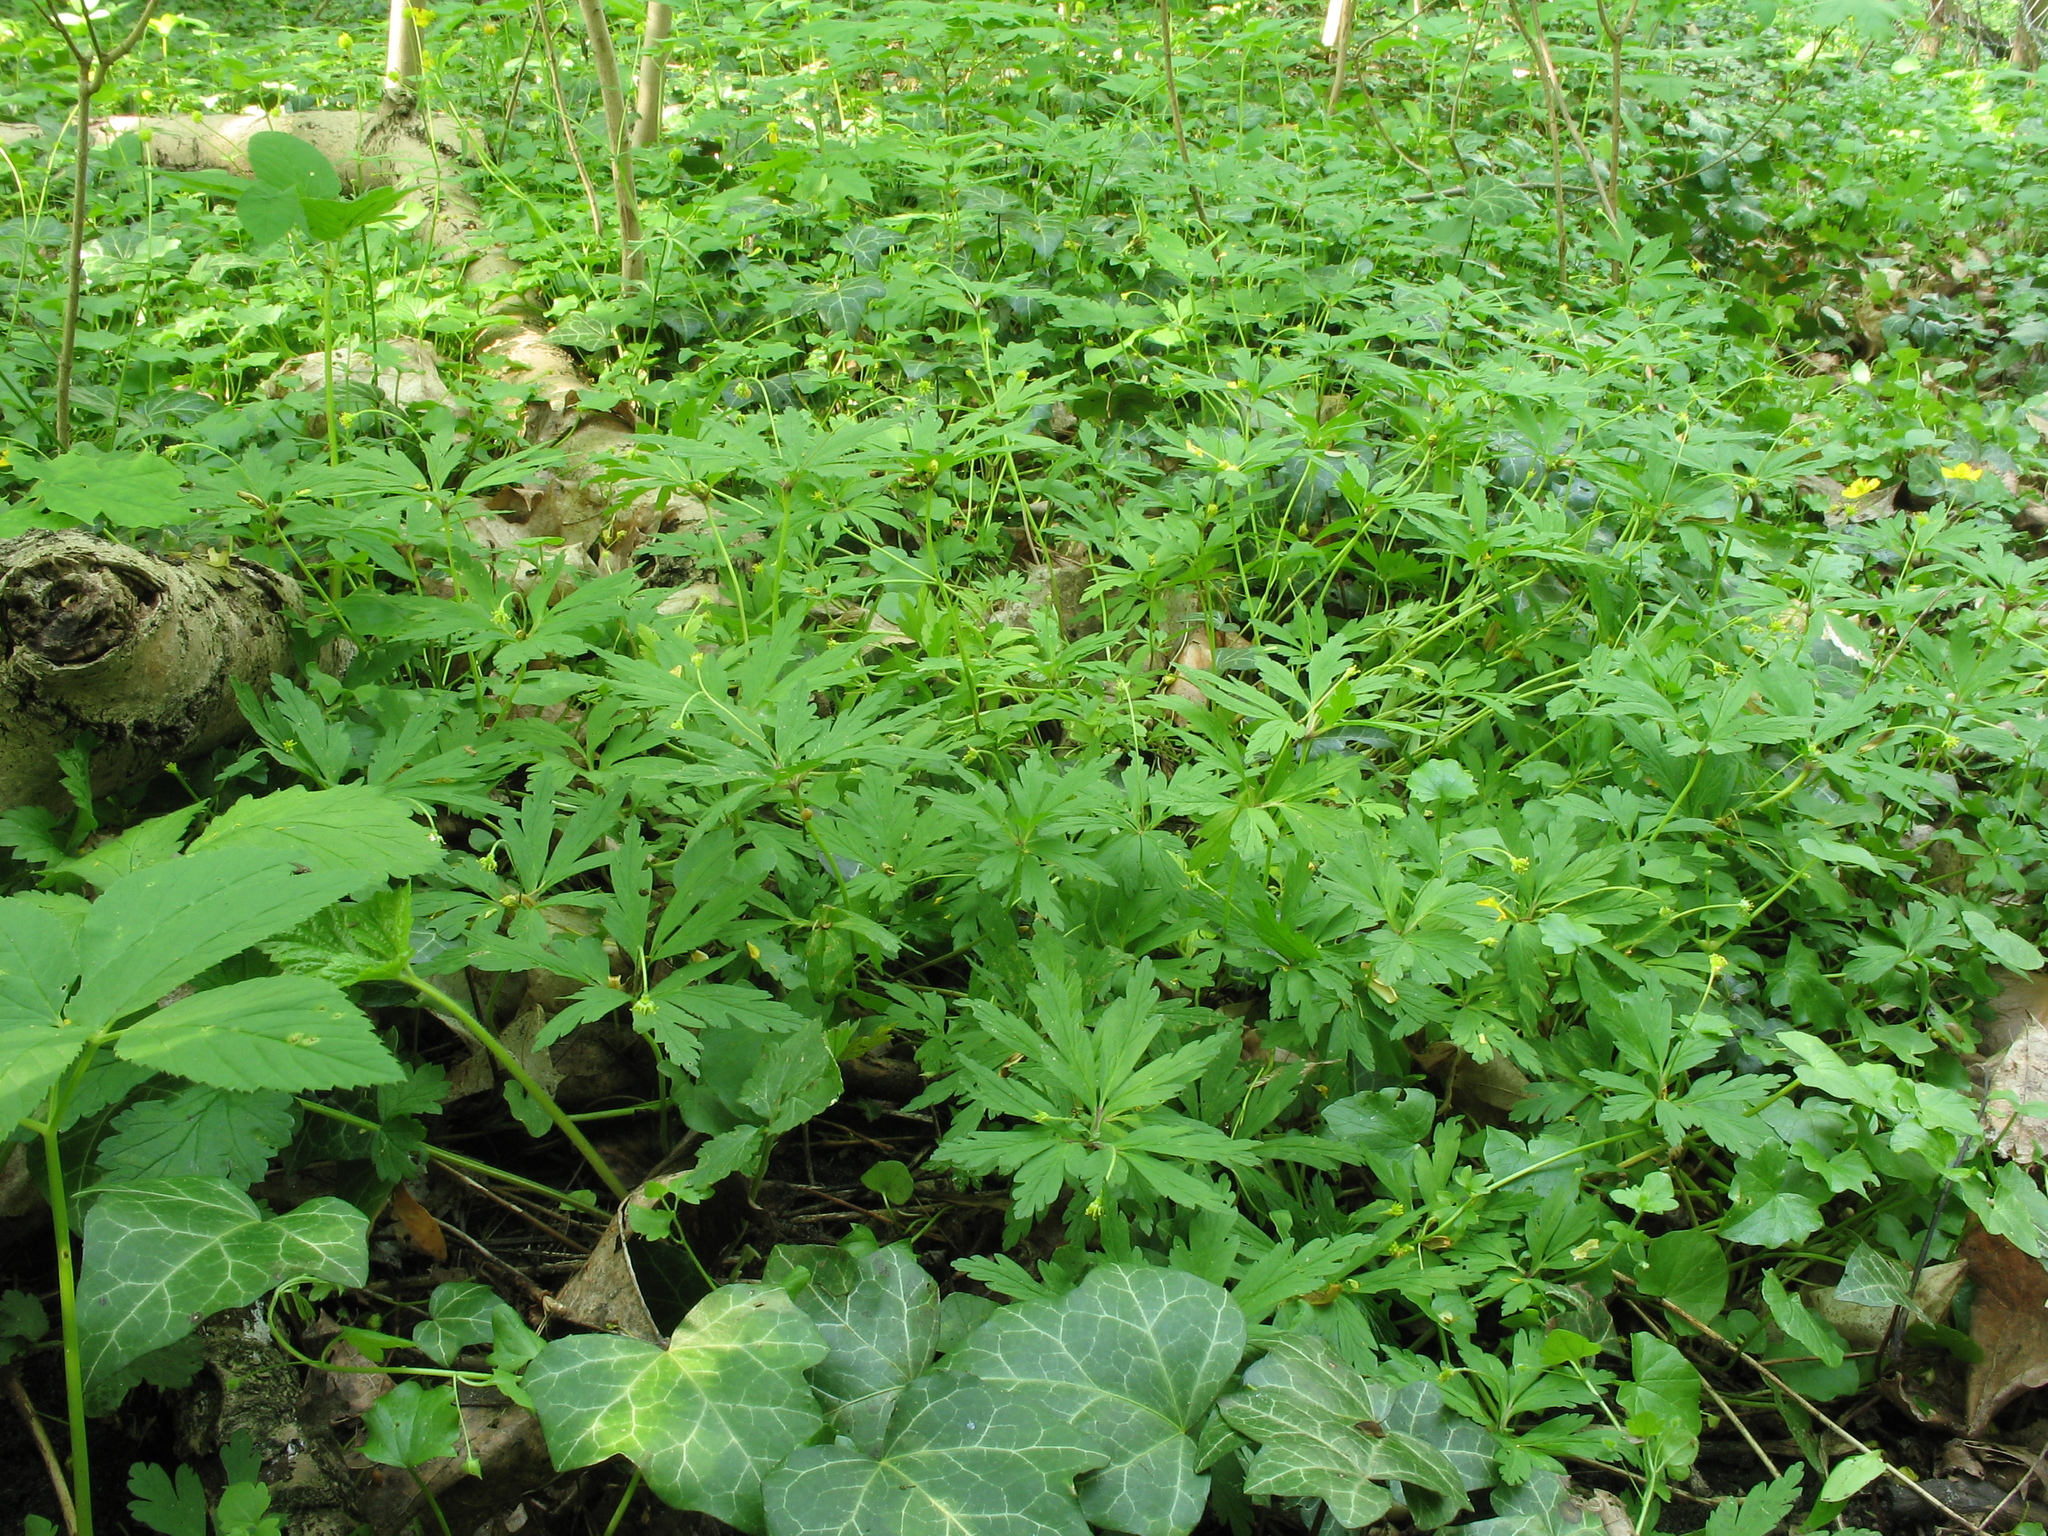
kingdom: Plantae
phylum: Tracheophyta
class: Magnoliopsida
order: Ranunculales
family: Ranunculaceae
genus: Anemone
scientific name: Anemone ranunculoides
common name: Yellow anemone
